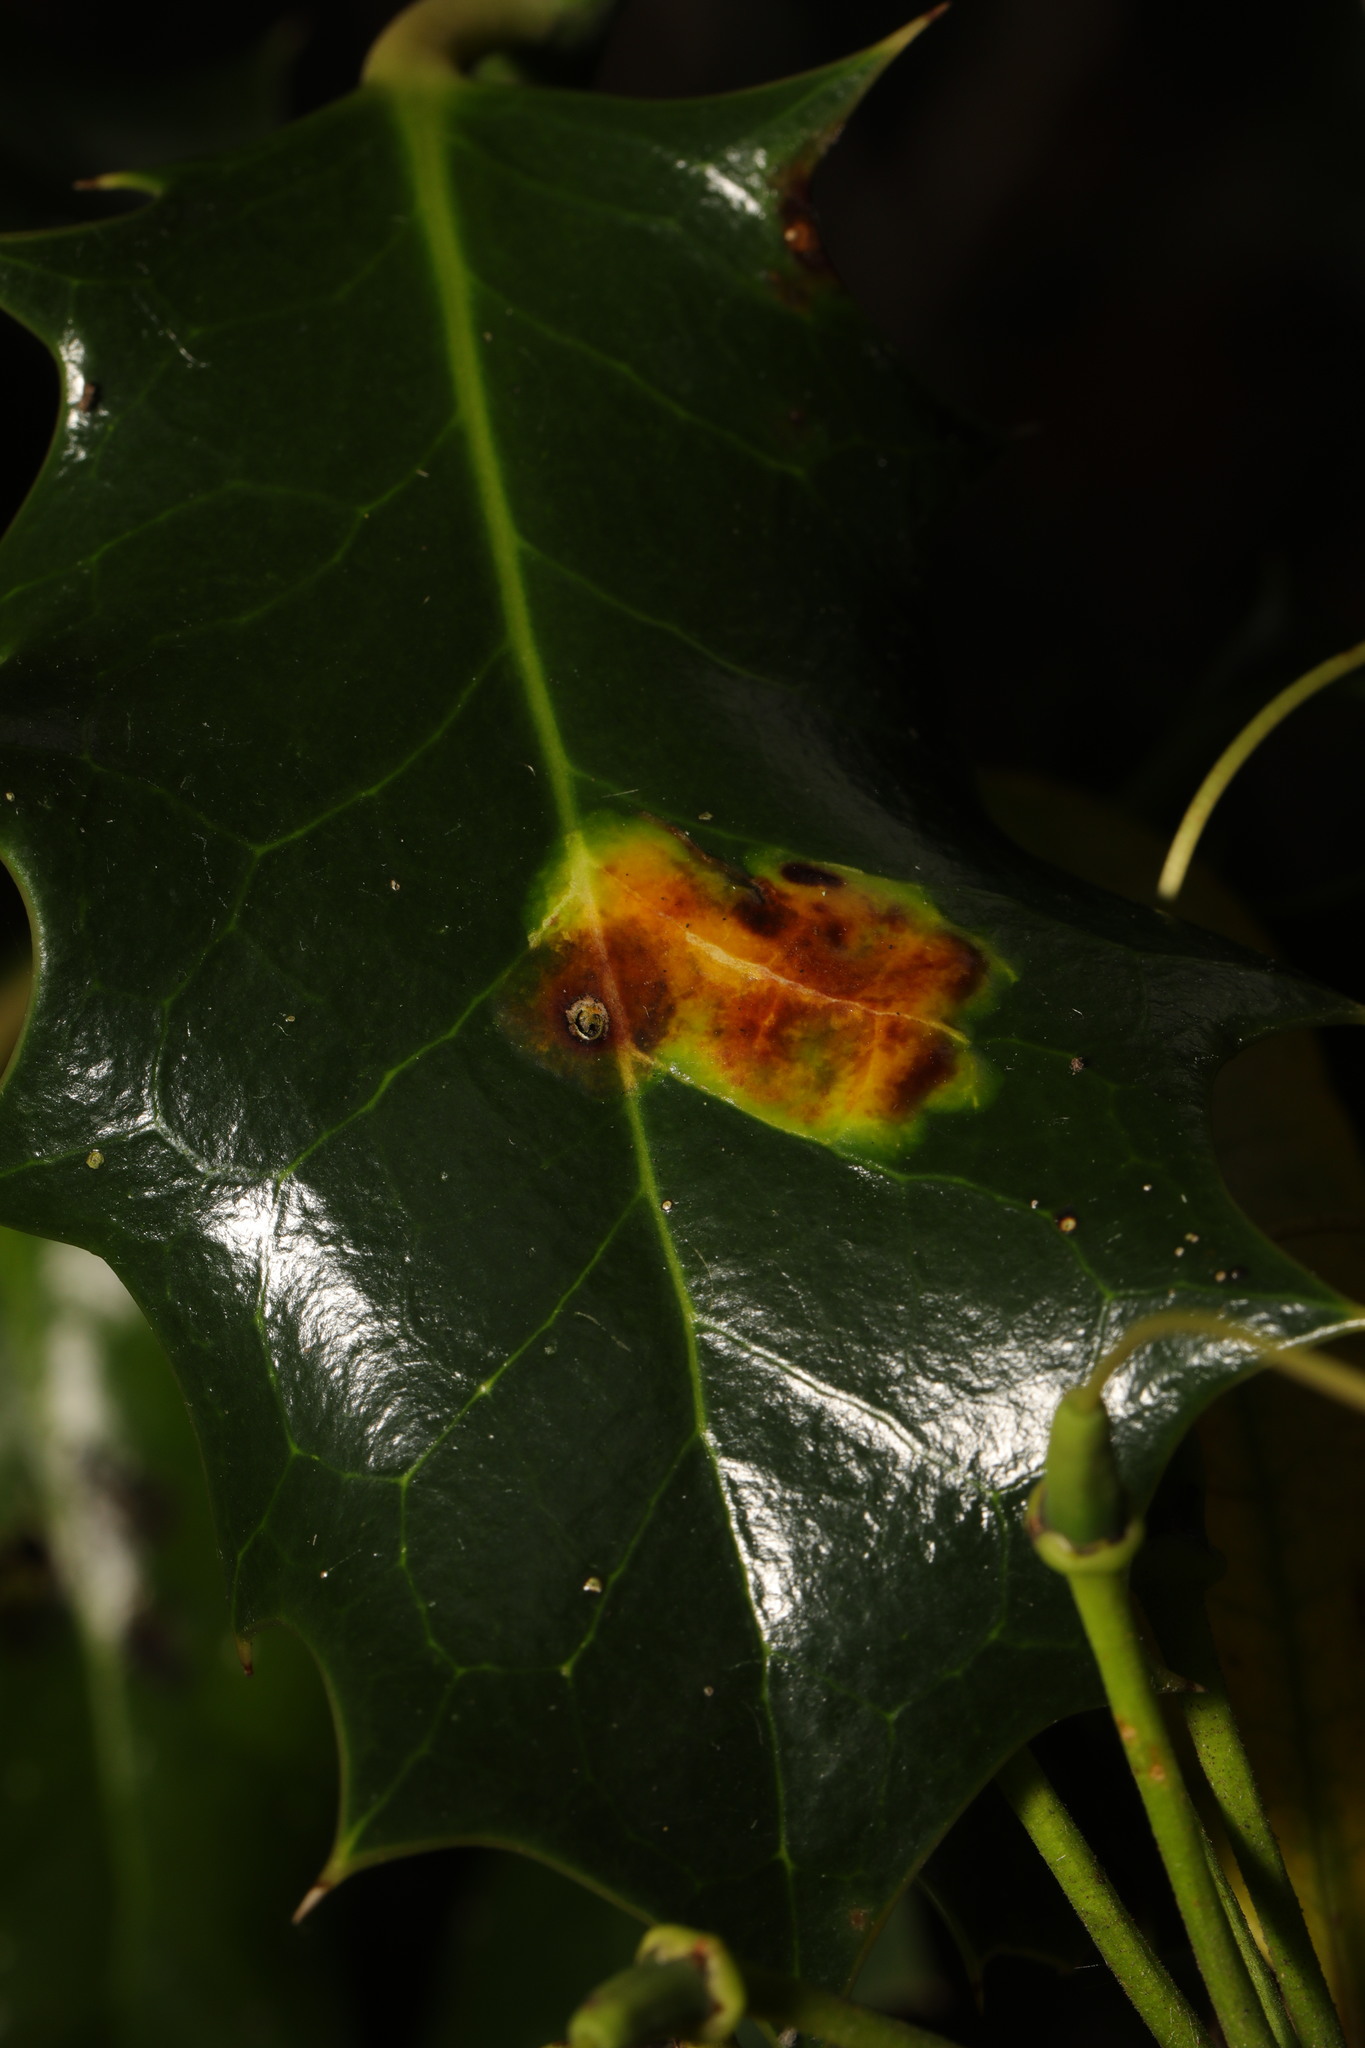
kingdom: Animalia
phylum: Arthropoda
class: Insecta
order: Diptera
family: Agromyzidae
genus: Phytomyza
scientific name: Phytomyza ilicis
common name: Holly leafminer
